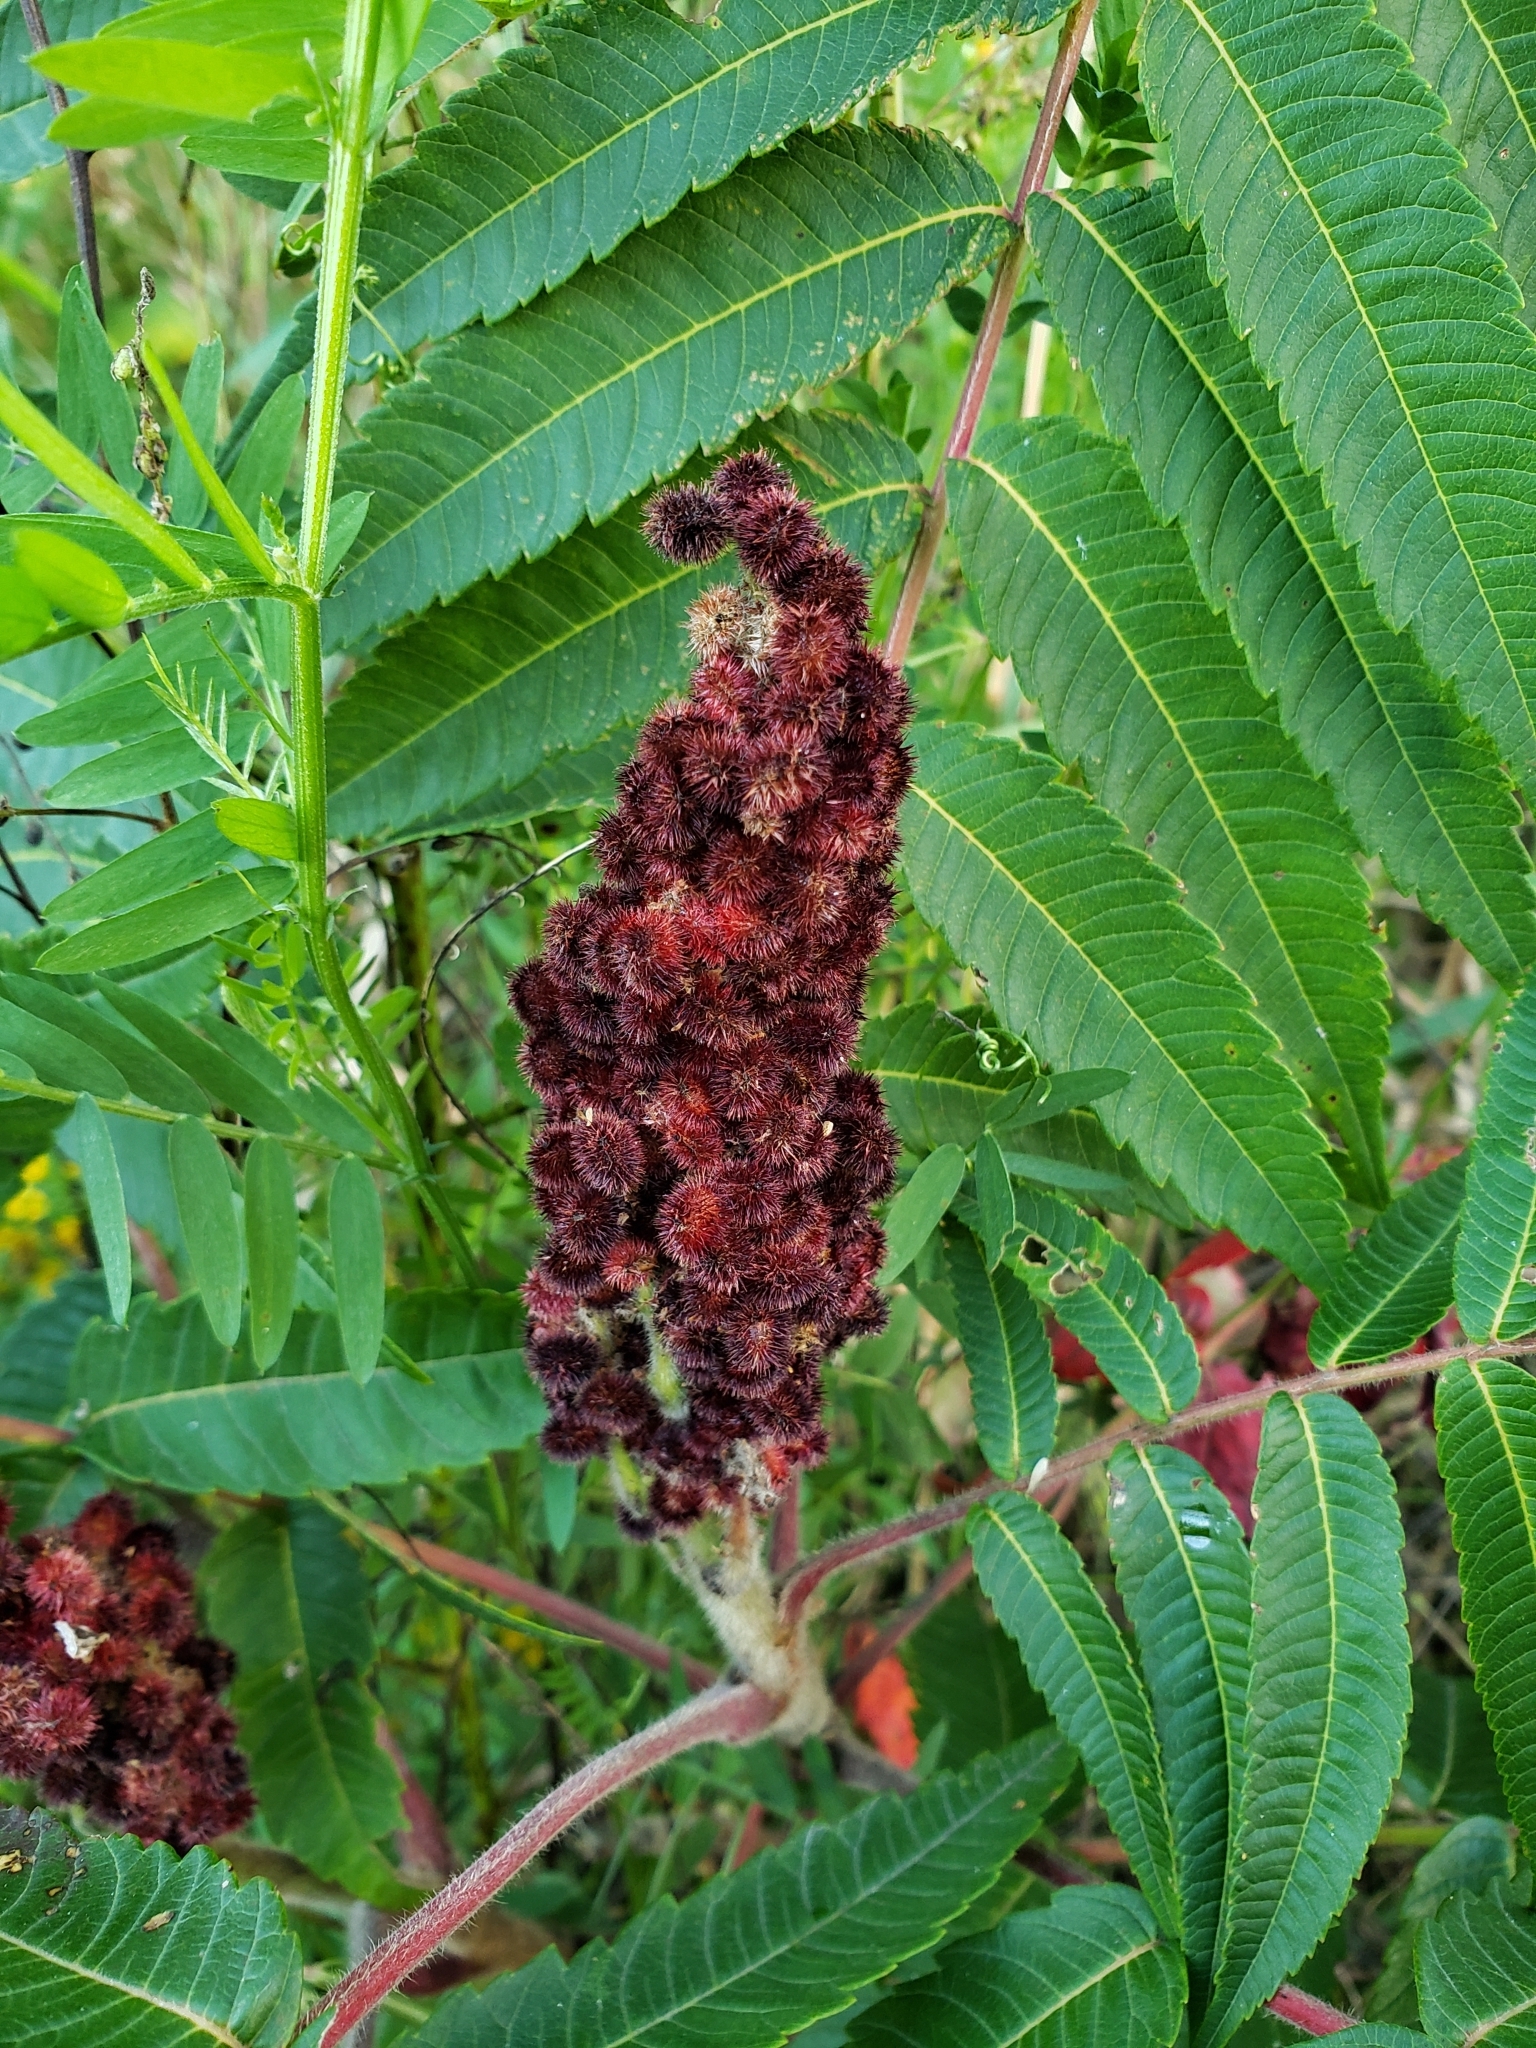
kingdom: Plantae
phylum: Tracheophyta
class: Magnoliopsida
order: Sapindales
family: Anacardiaceae
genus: Rhus
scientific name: Rhus typhina
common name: Staghorn sumac
